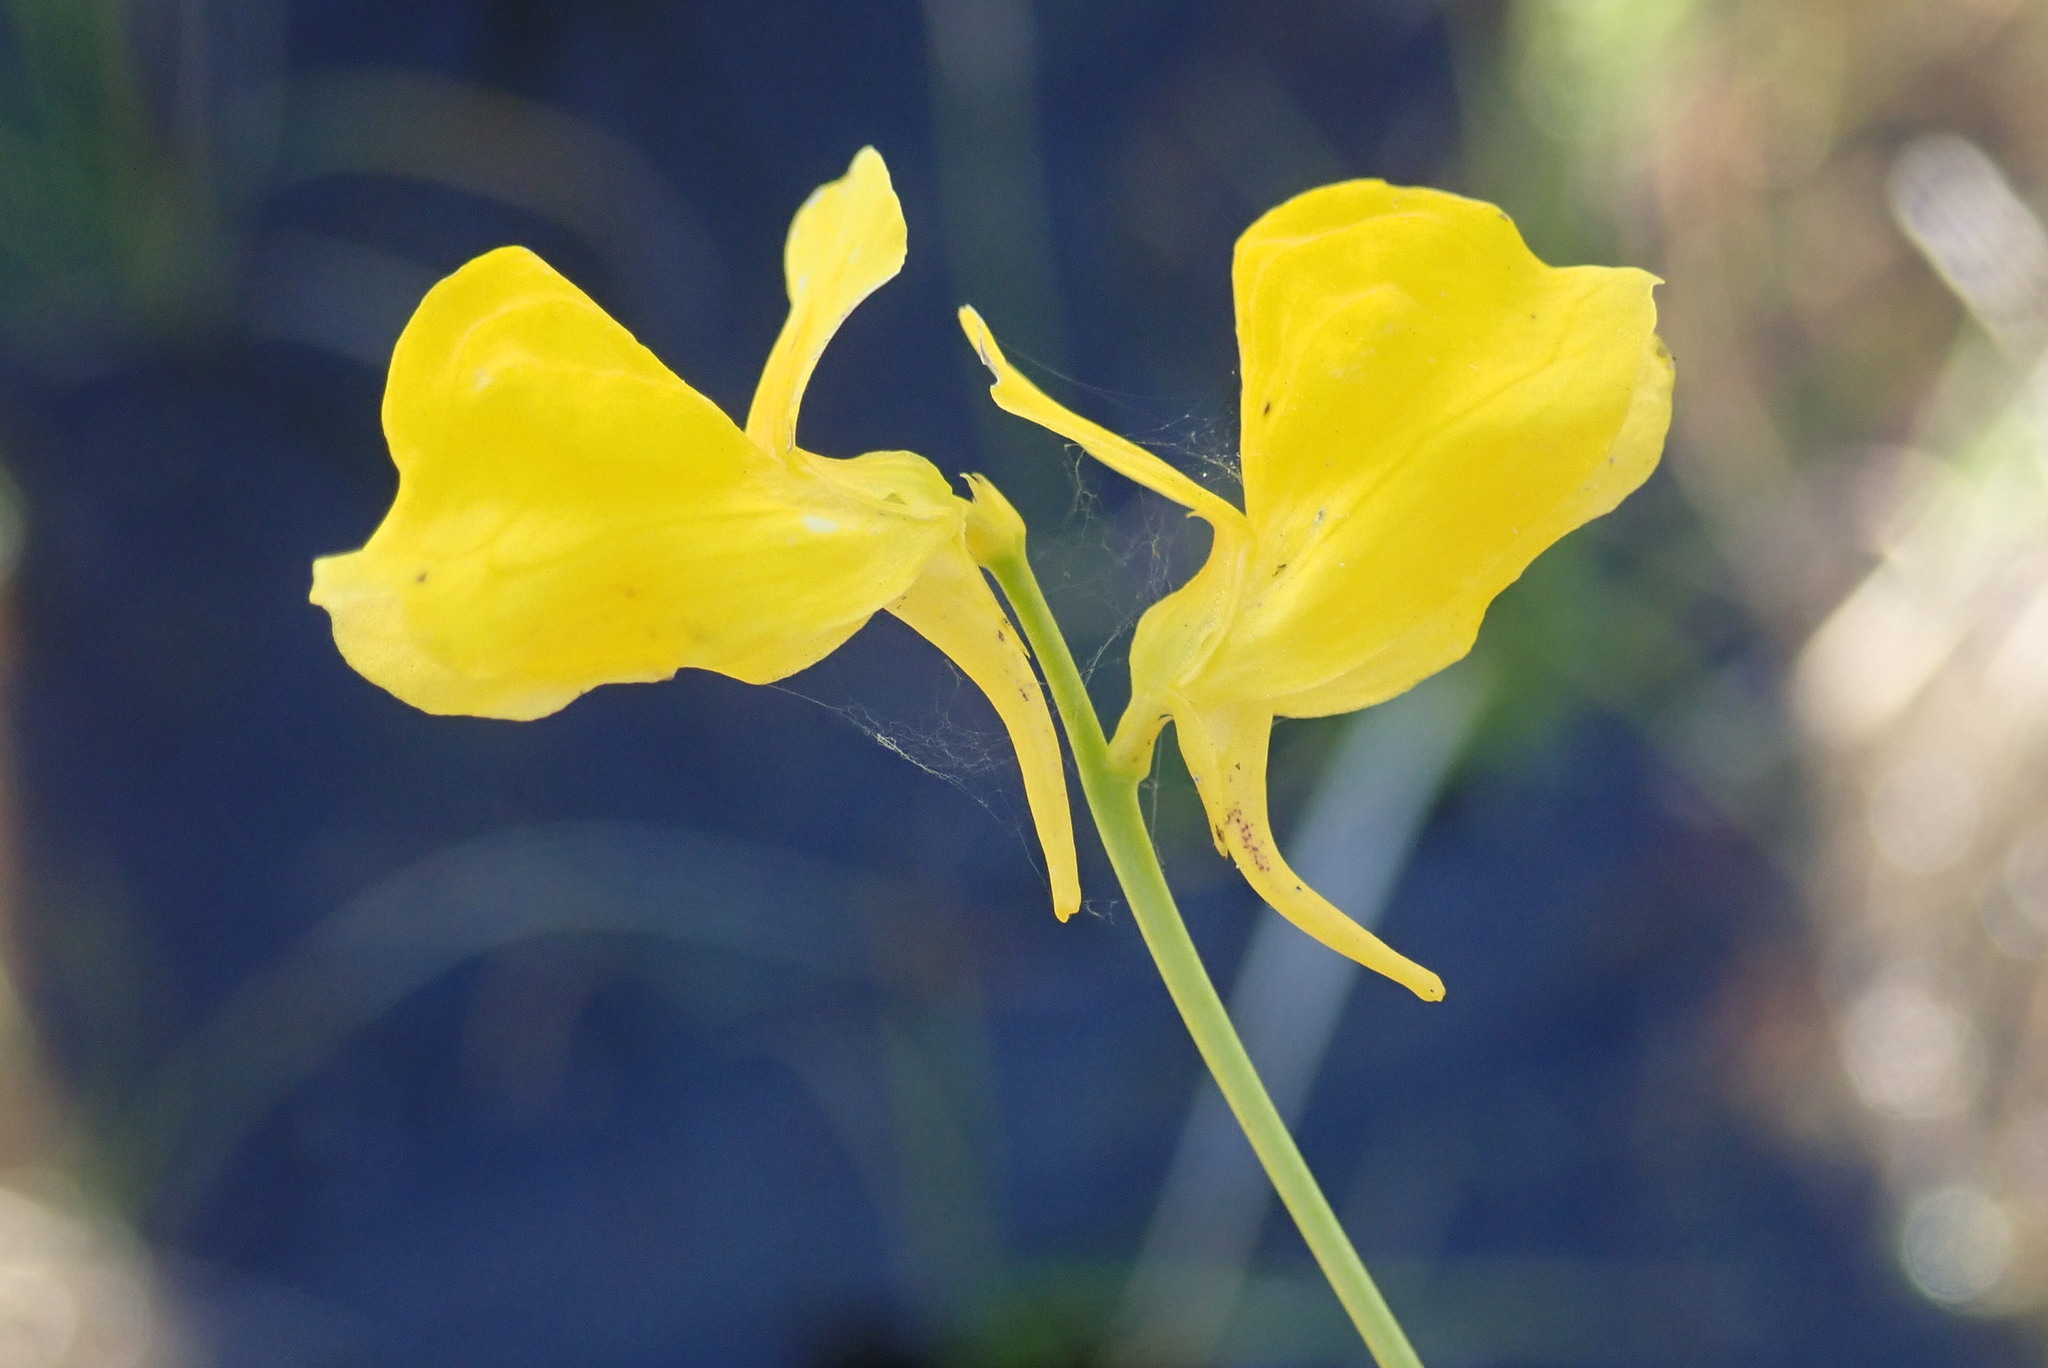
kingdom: Plantae
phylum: Tracheophyta
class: Magnoliopsida
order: Lamiales
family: Lentibulariaceae
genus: Utricularia
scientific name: Utricularia cornuta
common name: Horned bladderwort
